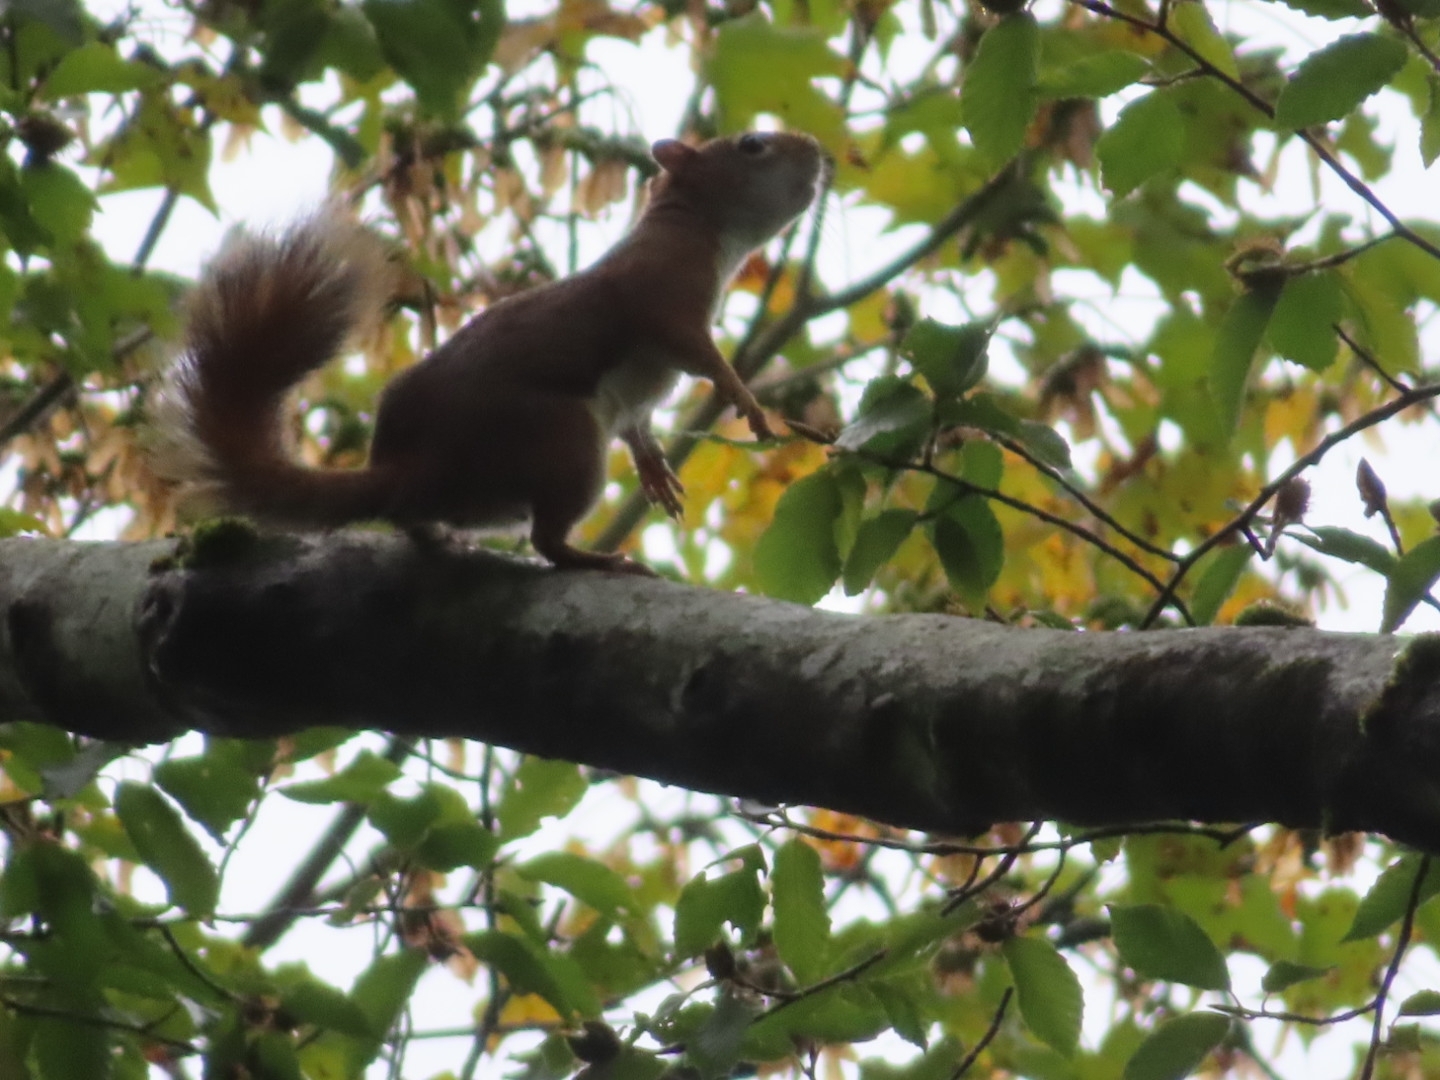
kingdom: Animalia
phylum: Chordata
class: Mammalia
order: Rodentia
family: Sciuridae
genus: Tamiasciurus
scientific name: Tamiasciurus hudsonicus
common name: Red squirrel
